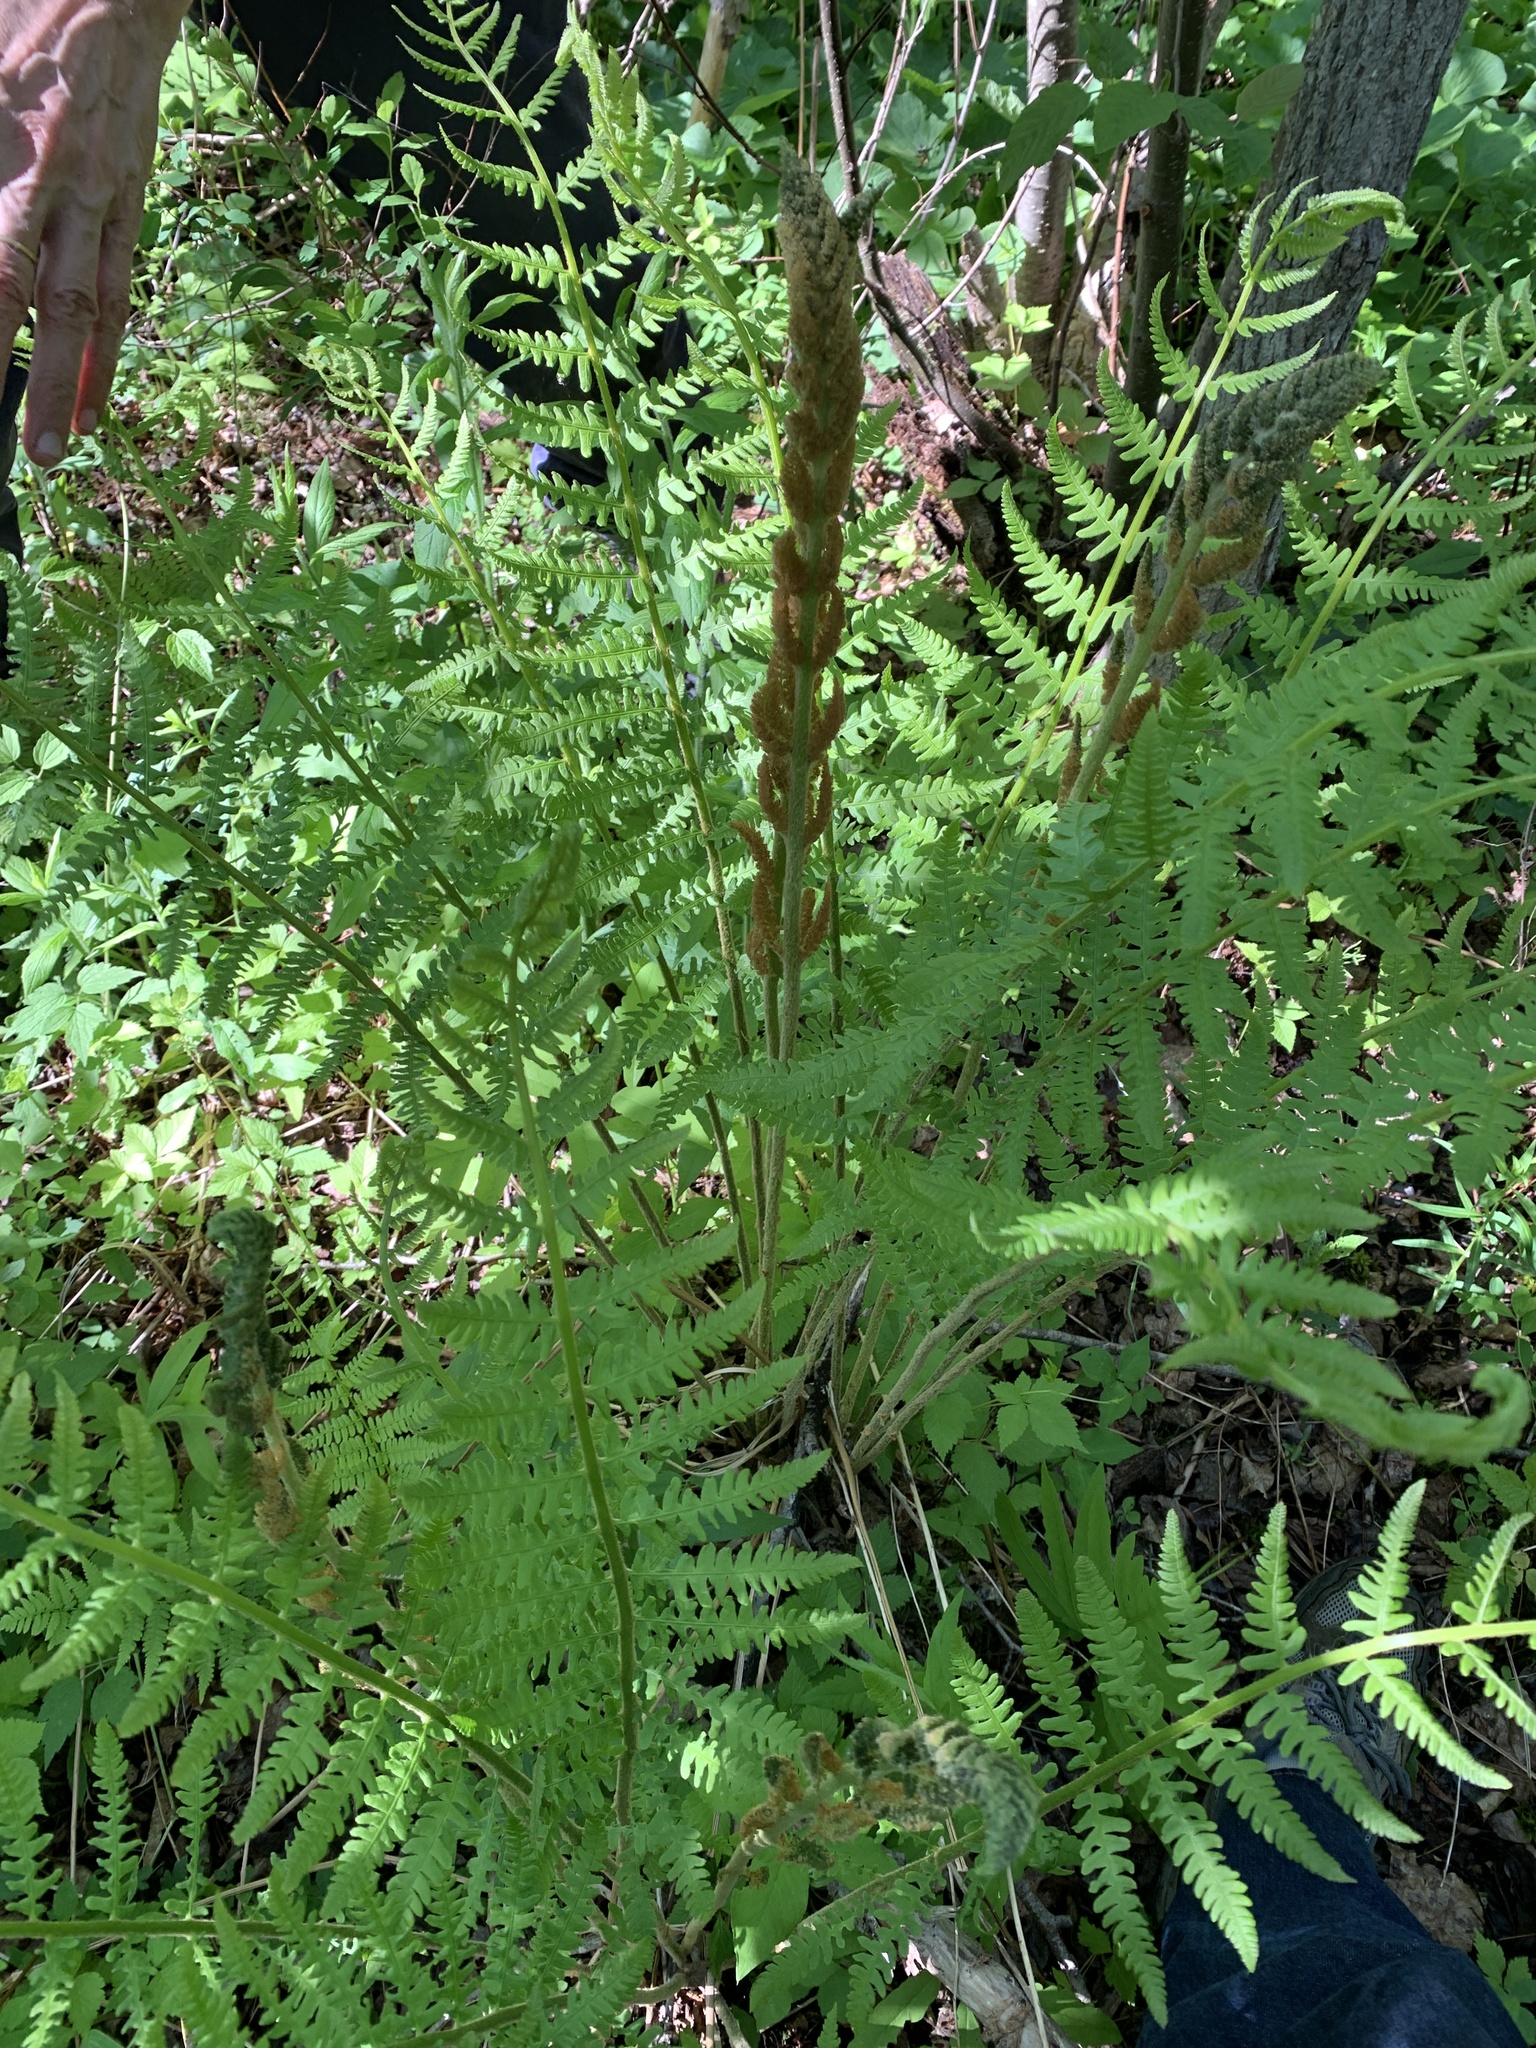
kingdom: Plantae
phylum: Tracheophyta
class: Polypodiopsida
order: Osmundales
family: Osmundaceae
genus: Osmundastrum
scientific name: Osmundastrum cinnamomeum
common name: Cinnamon fern
